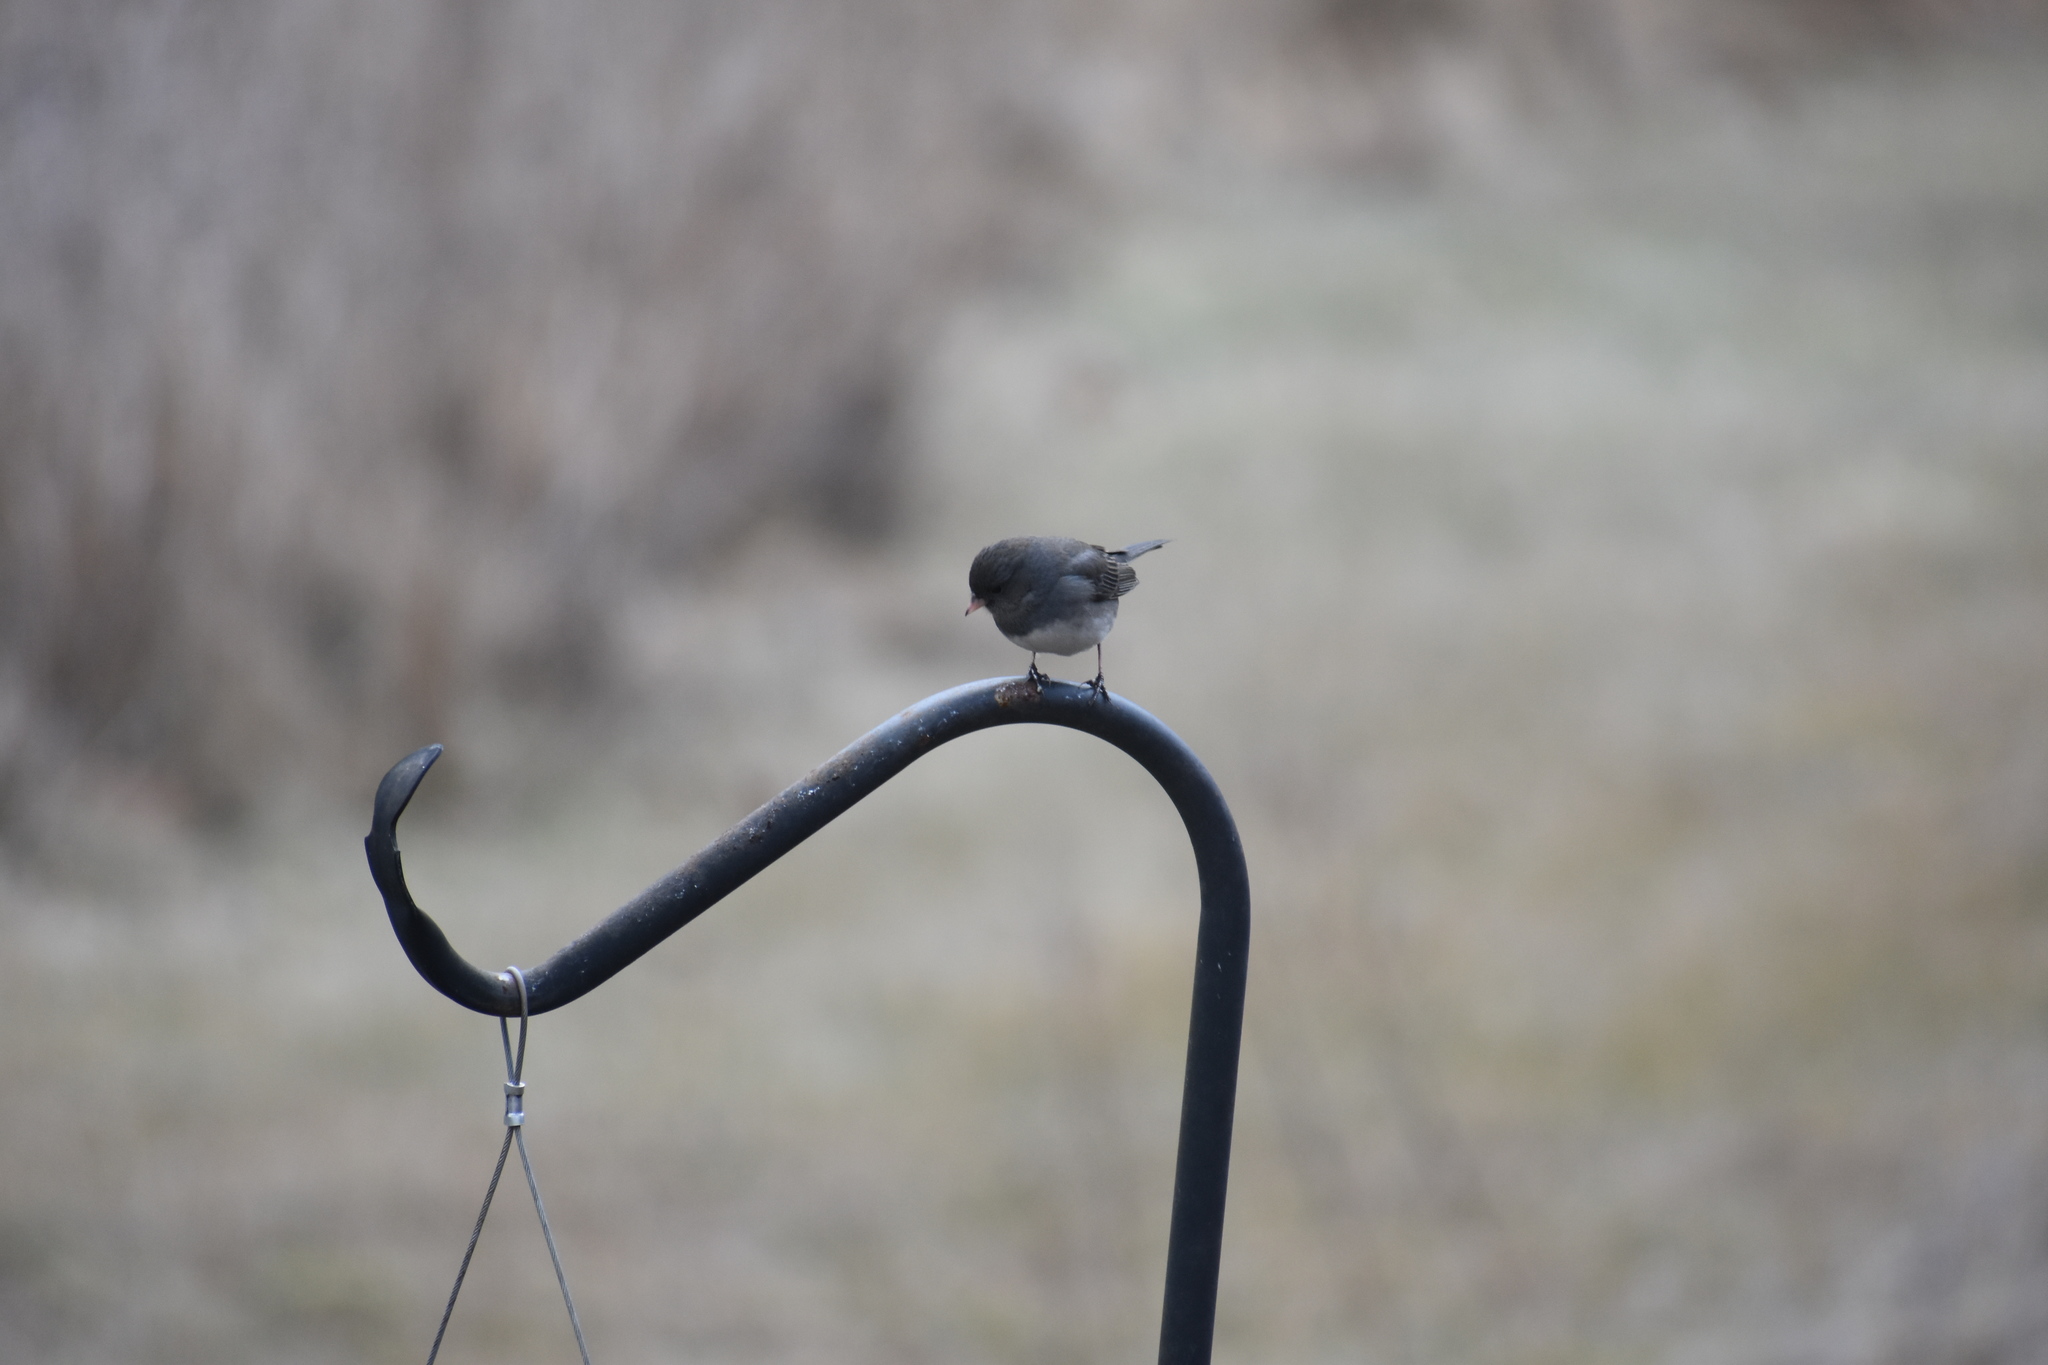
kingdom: Animalia
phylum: Chordata
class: Aves
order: Passeriformes
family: Passerellidae
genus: Junco
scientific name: Junco hyemalis
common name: Dark-eyed junco
